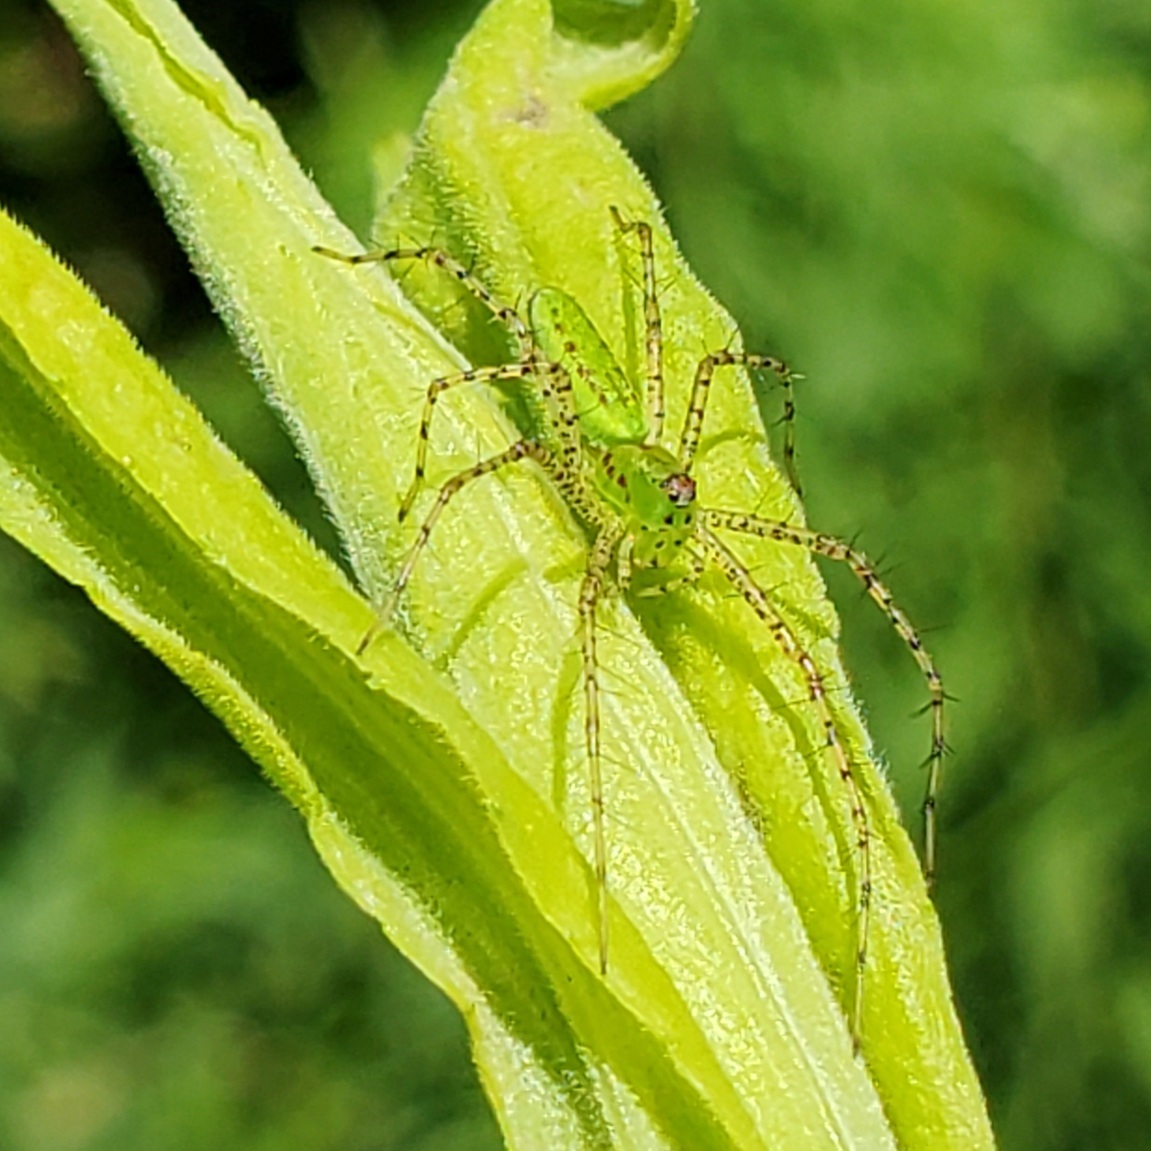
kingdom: Animalia
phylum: Arthropoda
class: Arachnida
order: Araneae
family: Oxyopidae
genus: Peucetia
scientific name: Peucetia viridans
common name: Lynx spiders
